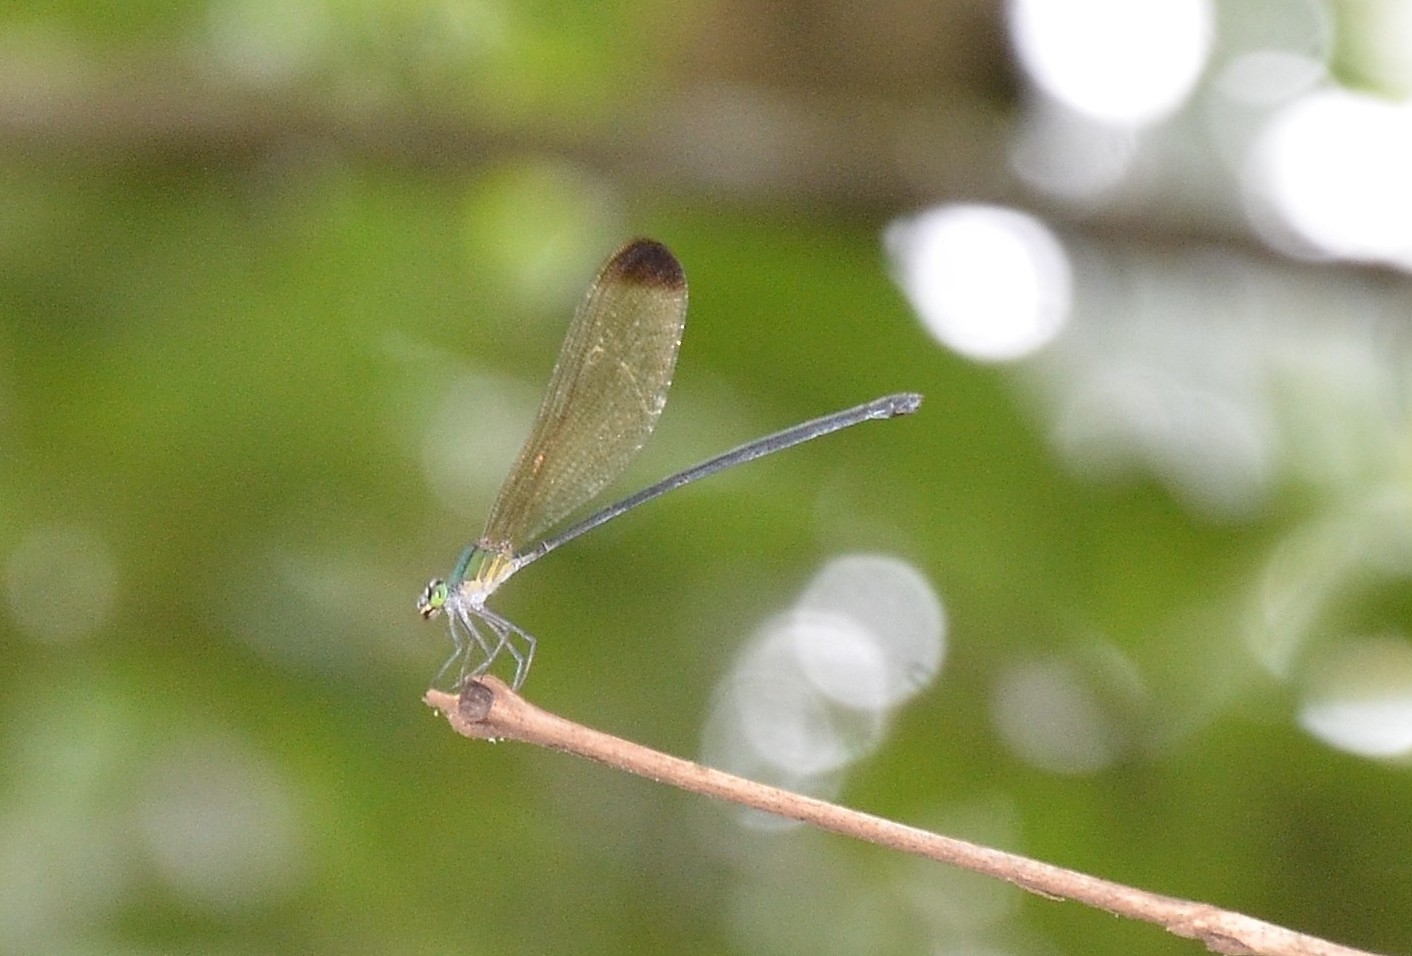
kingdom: Animalia
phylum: Arthropoda
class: Insecta
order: Odonata
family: Calopterygidae
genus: Vestalis
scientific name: Vestalis apicalis
